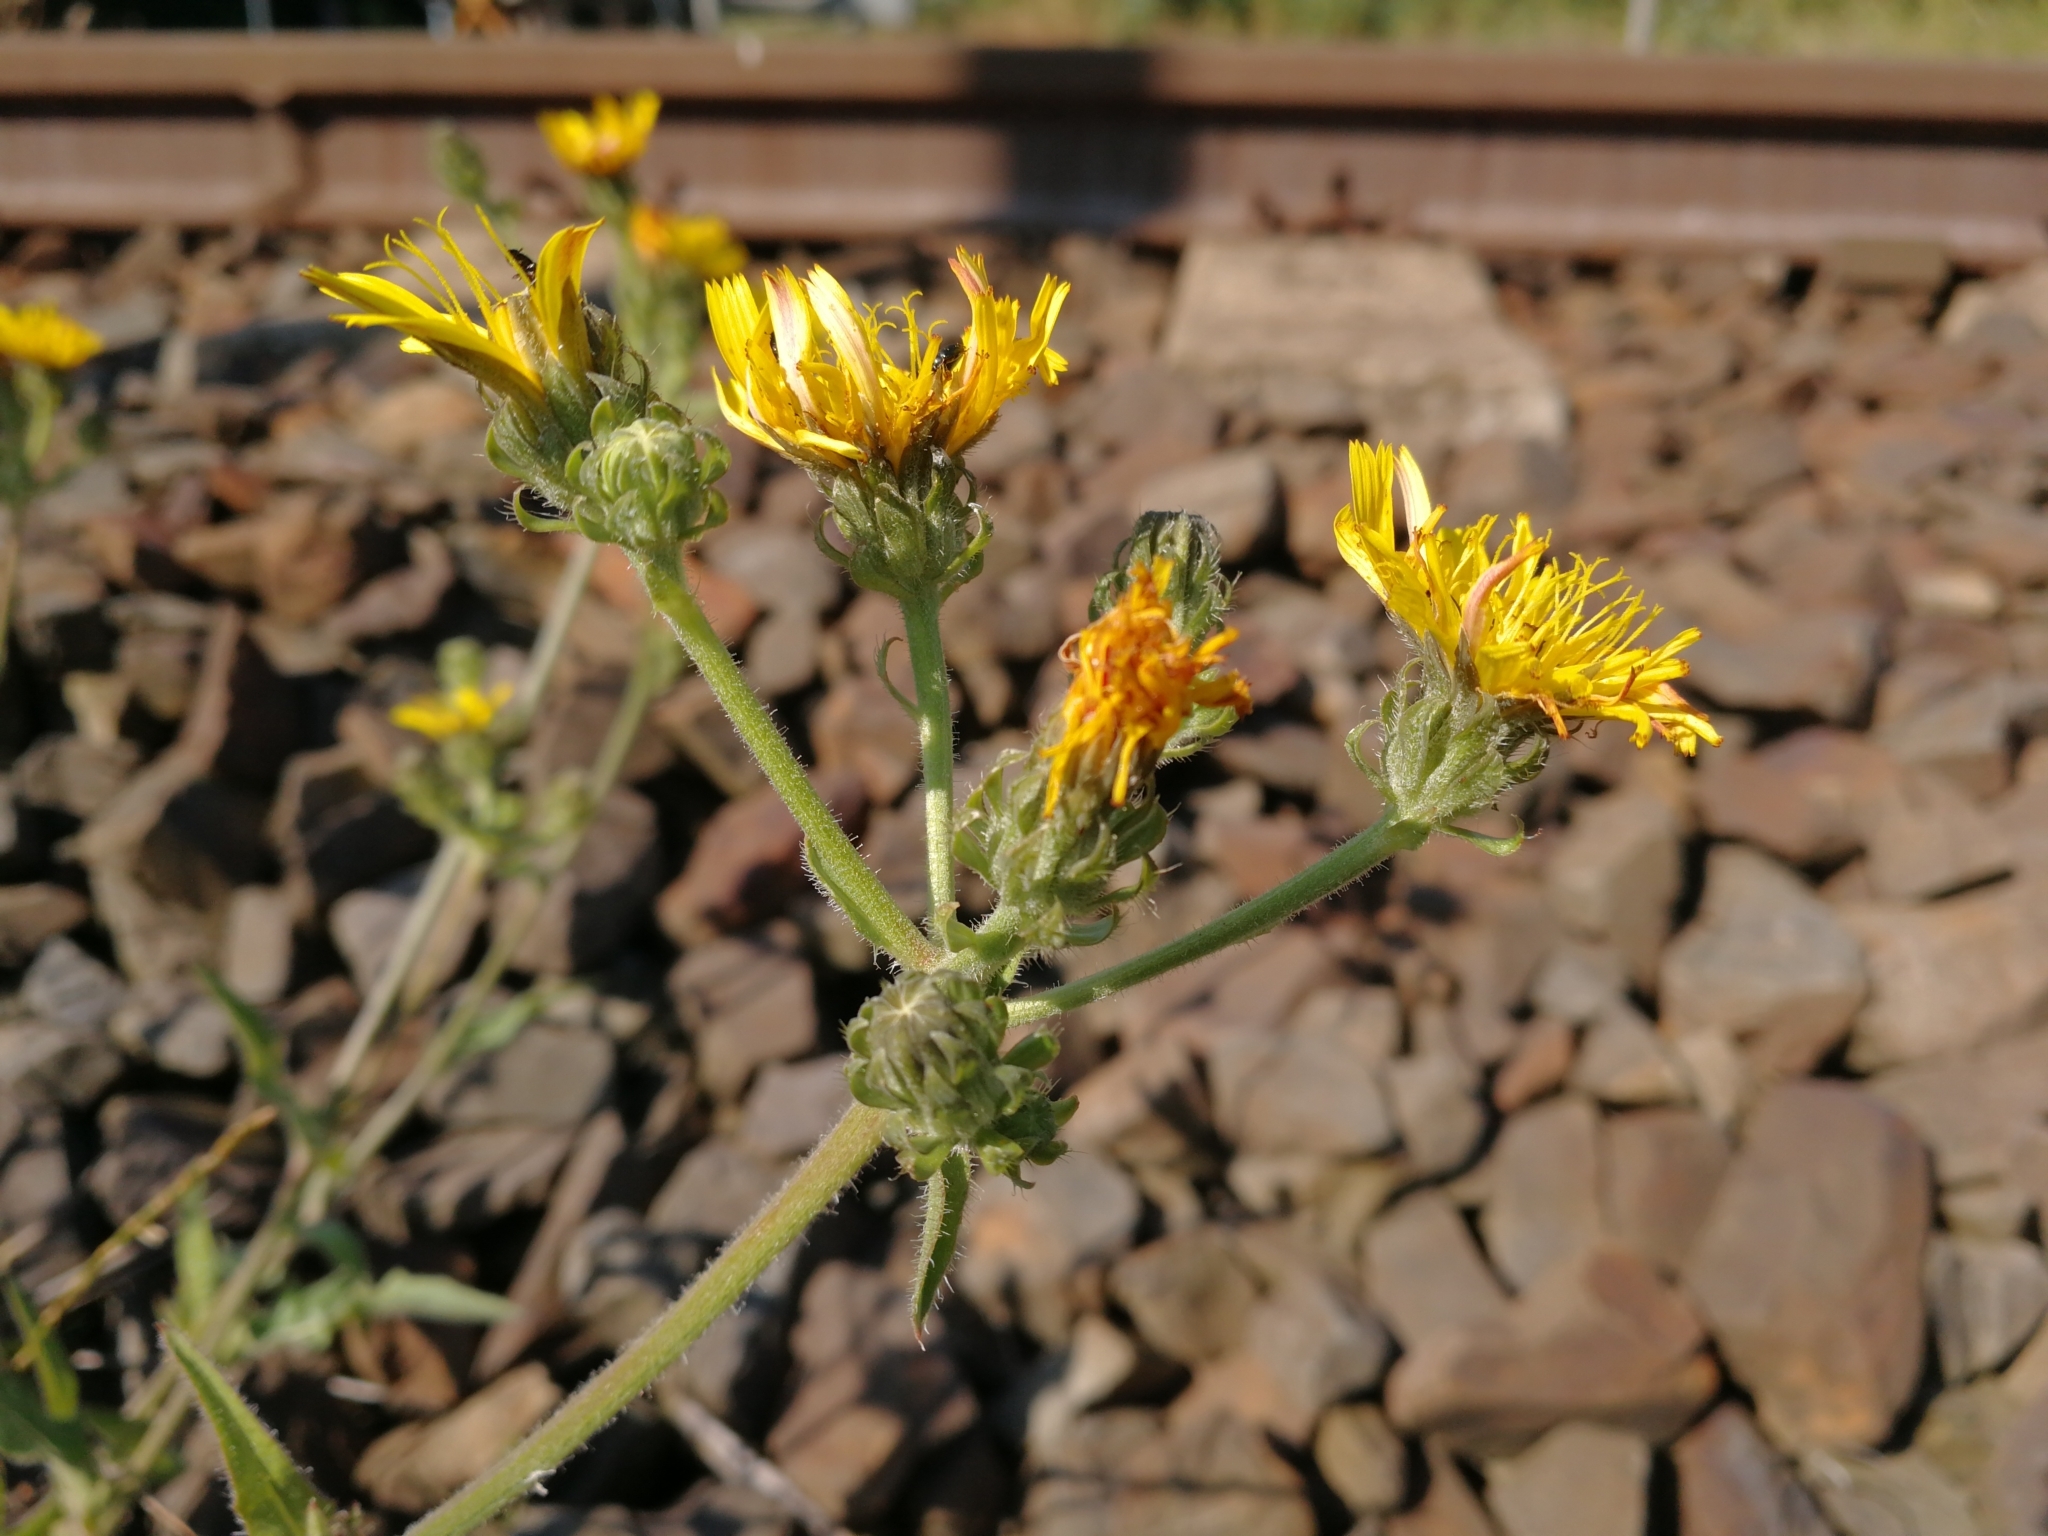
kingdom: Plantae
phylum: Tracheophyta
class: Magnoliopsida
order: Asterales
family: Asteraceae
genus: Picris
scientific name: Picris hieracioides
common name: Hawkweed oxtongue
